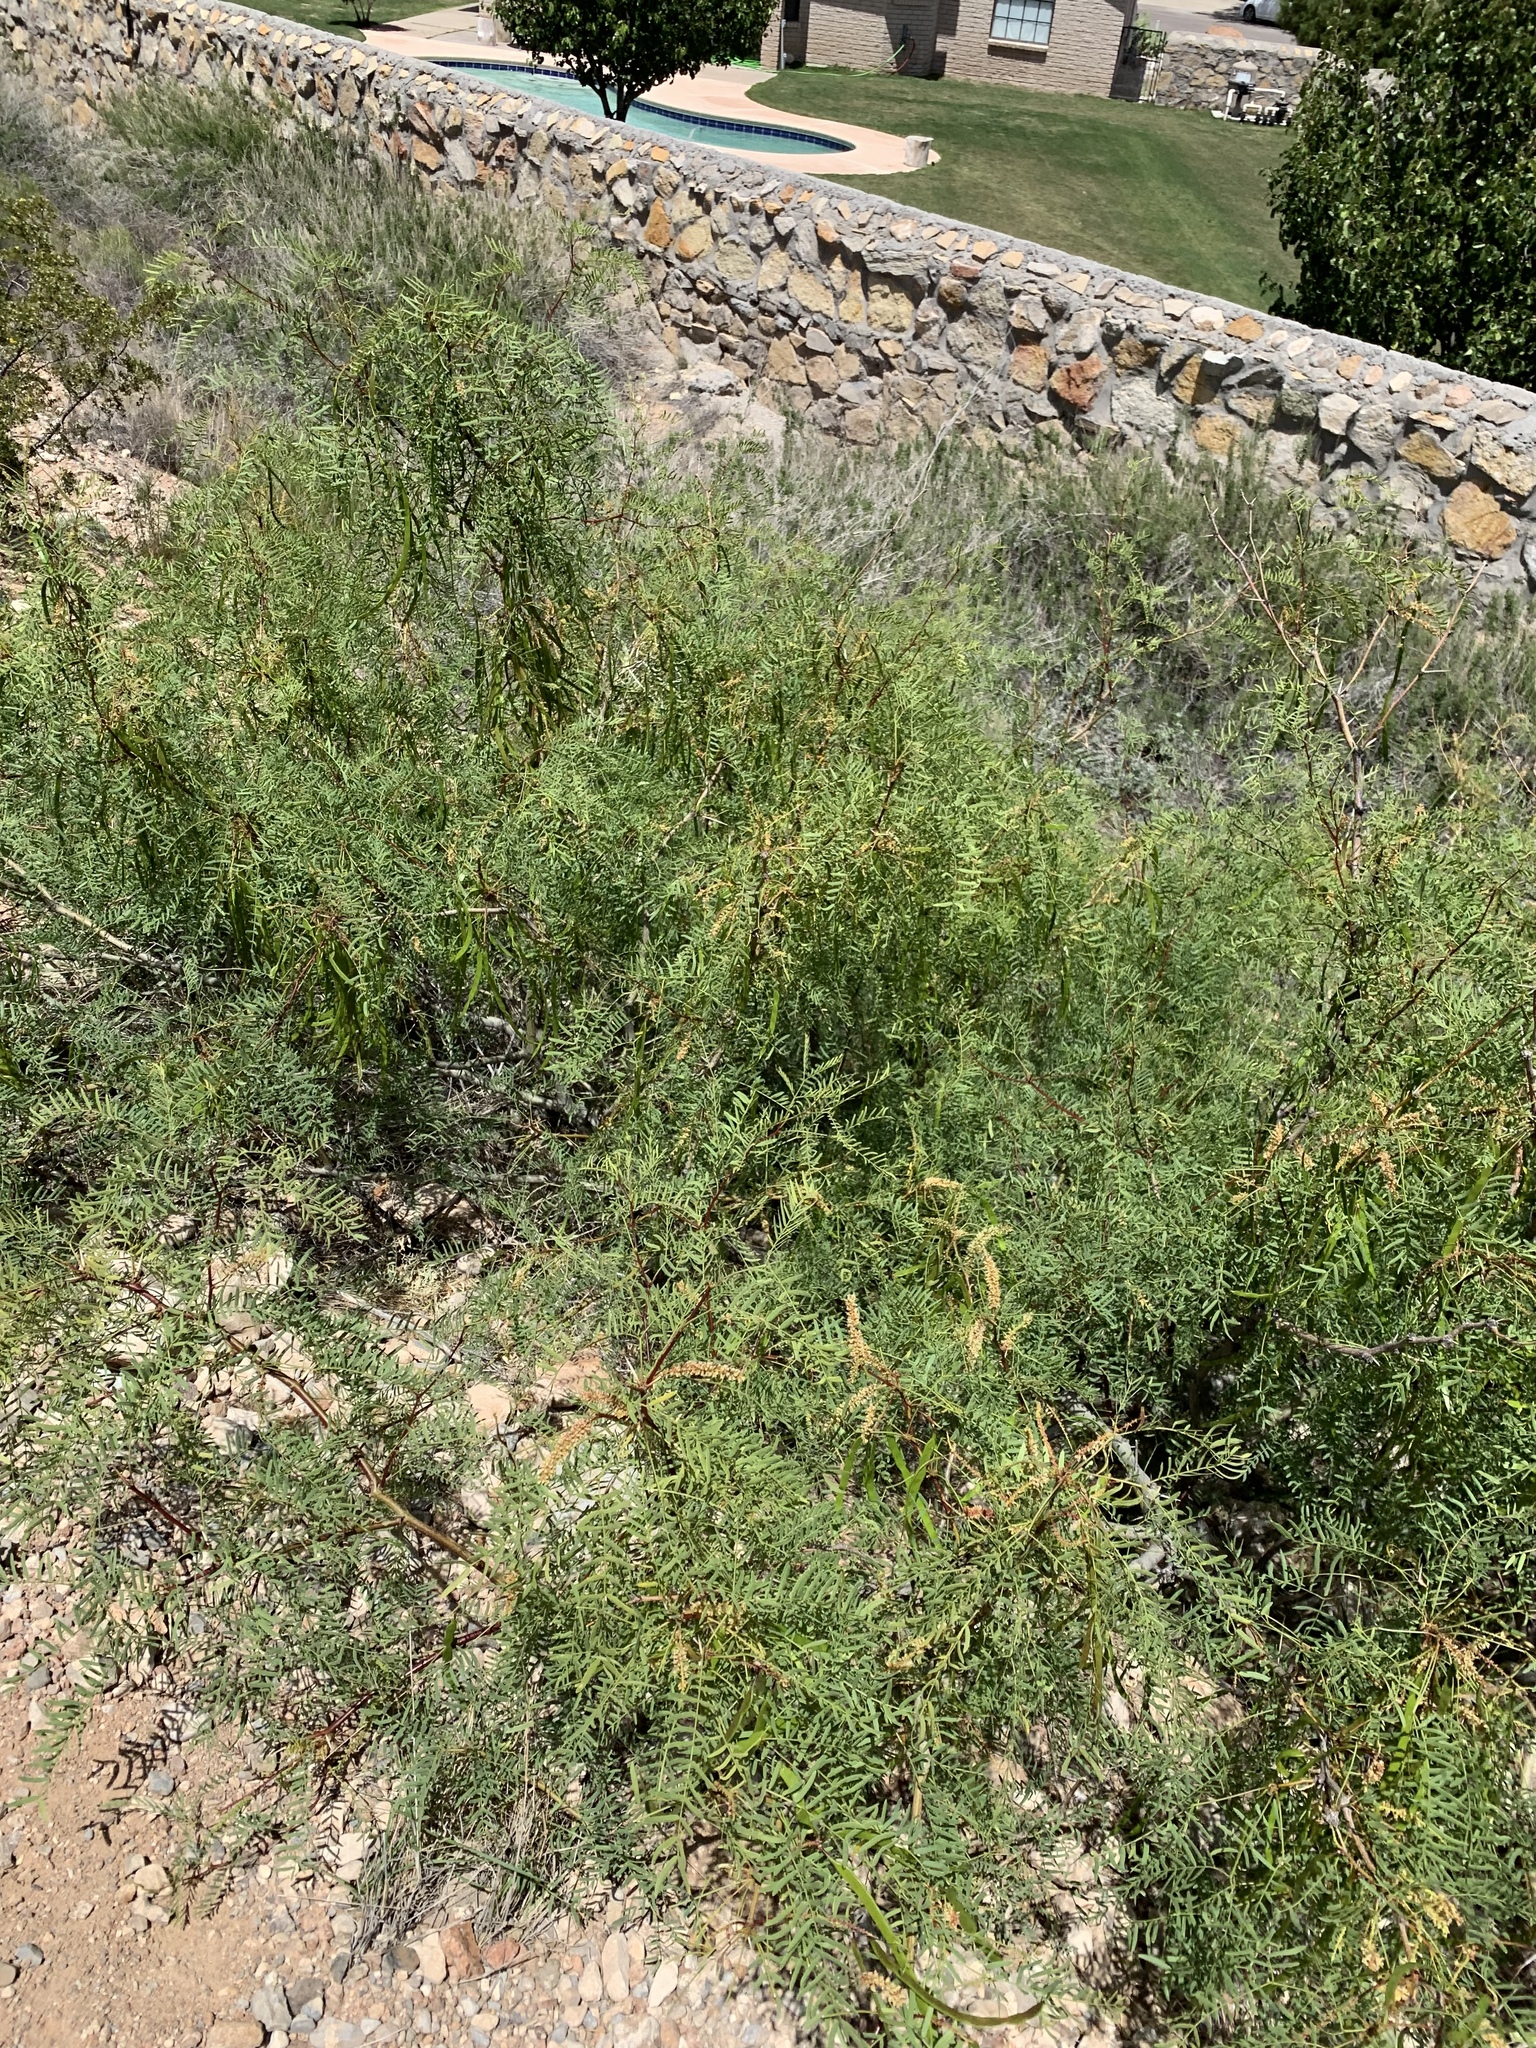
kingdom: Plantae
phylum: Tracheophyta
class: Magnoliopsida
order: Fabales
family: Fabaceae
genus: Prosopis
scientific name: Prosopis glandulosa
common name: Honey mesquite
